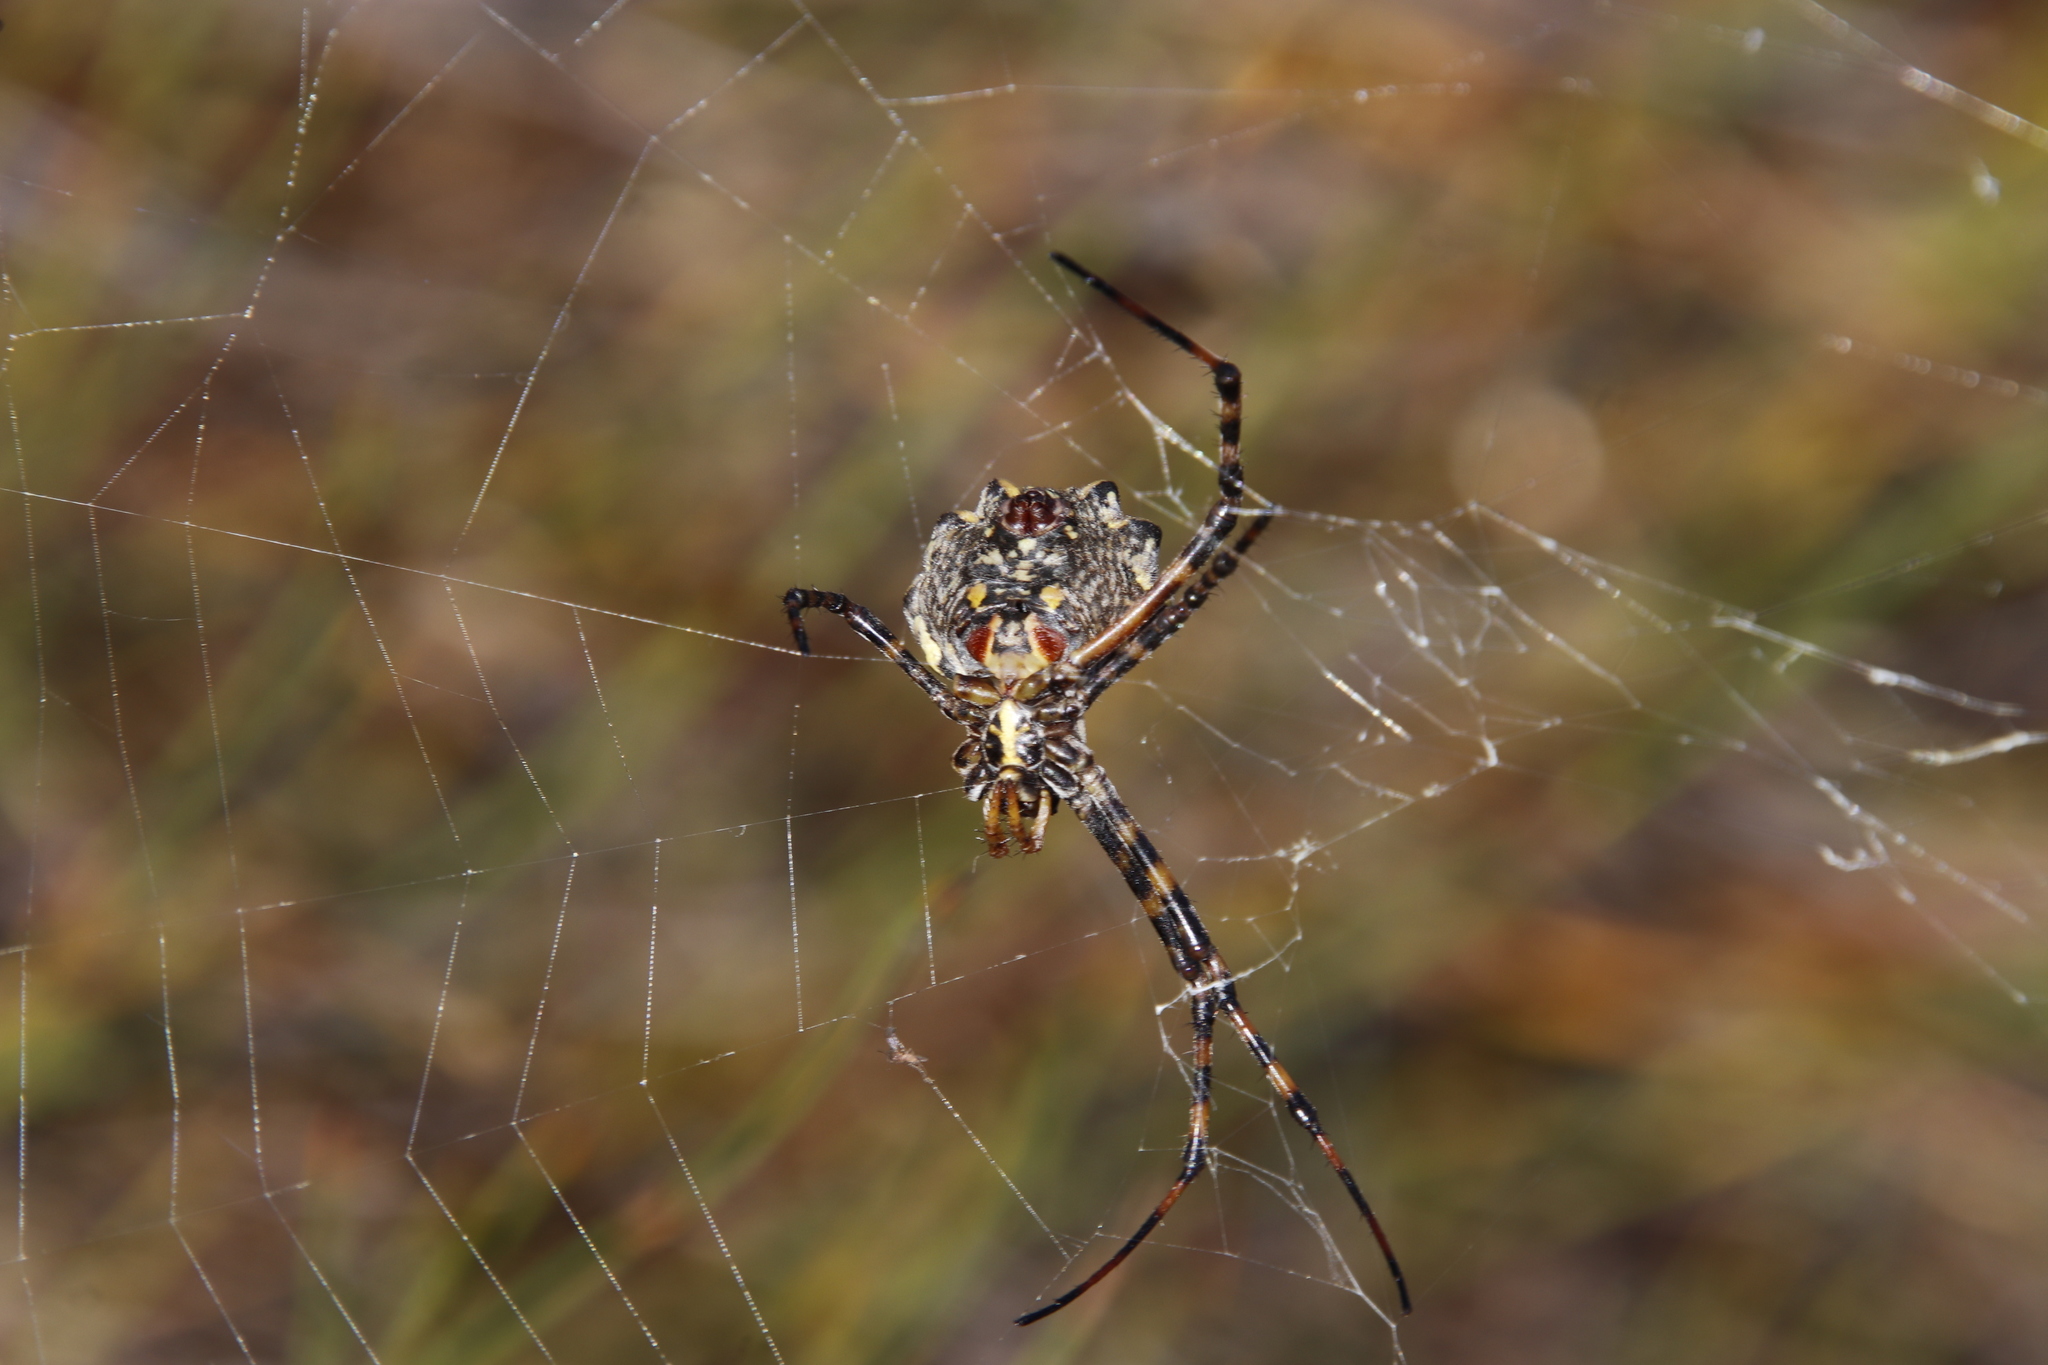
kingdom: Animalia
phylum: Arthropoda
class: Arachnida
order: Araneae
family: Araneidae
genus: Argiope
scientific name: Argiope australis
